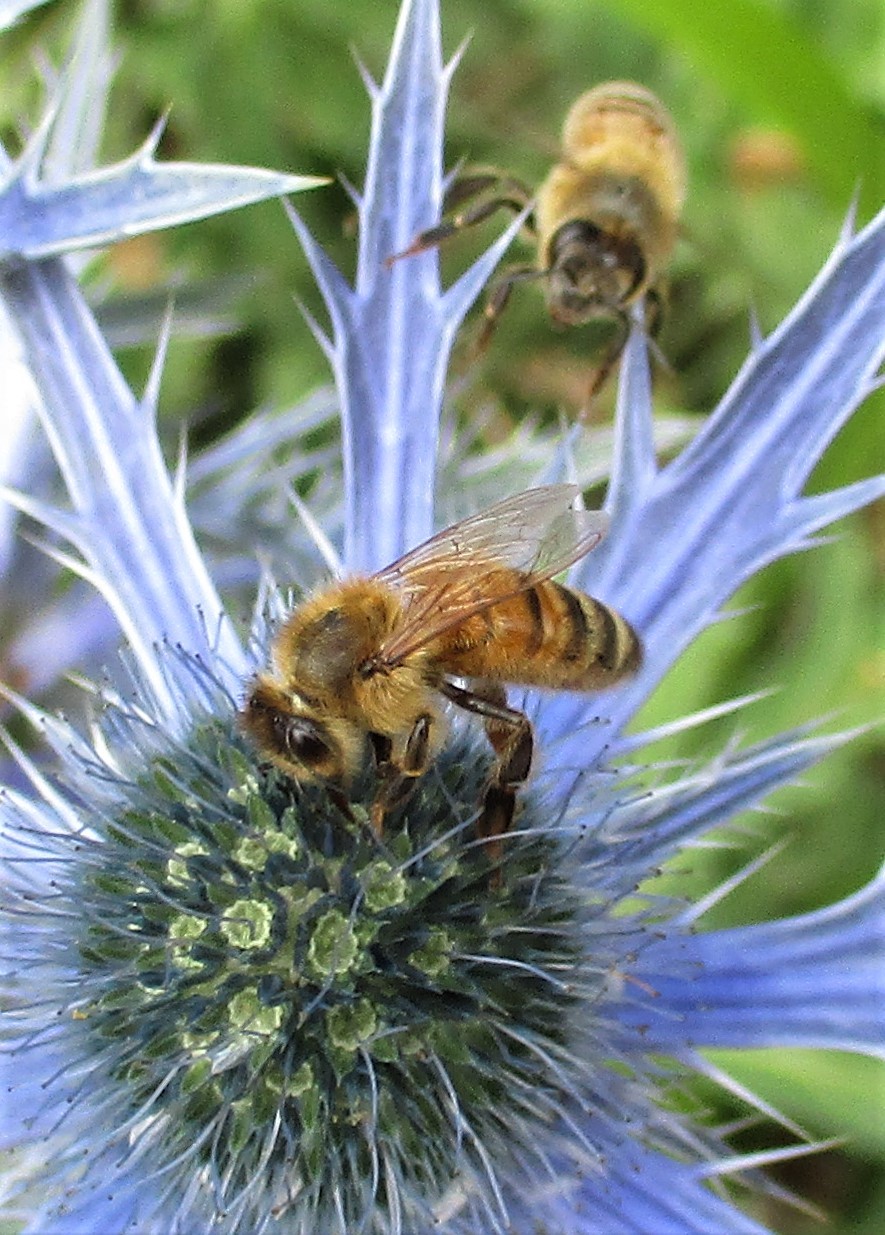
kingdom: Animalia
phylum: Arthropoda
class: Insecta
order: Hymenoptera
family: Apidae
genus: Apis
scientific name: Apis mellifera
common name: Honey bee
